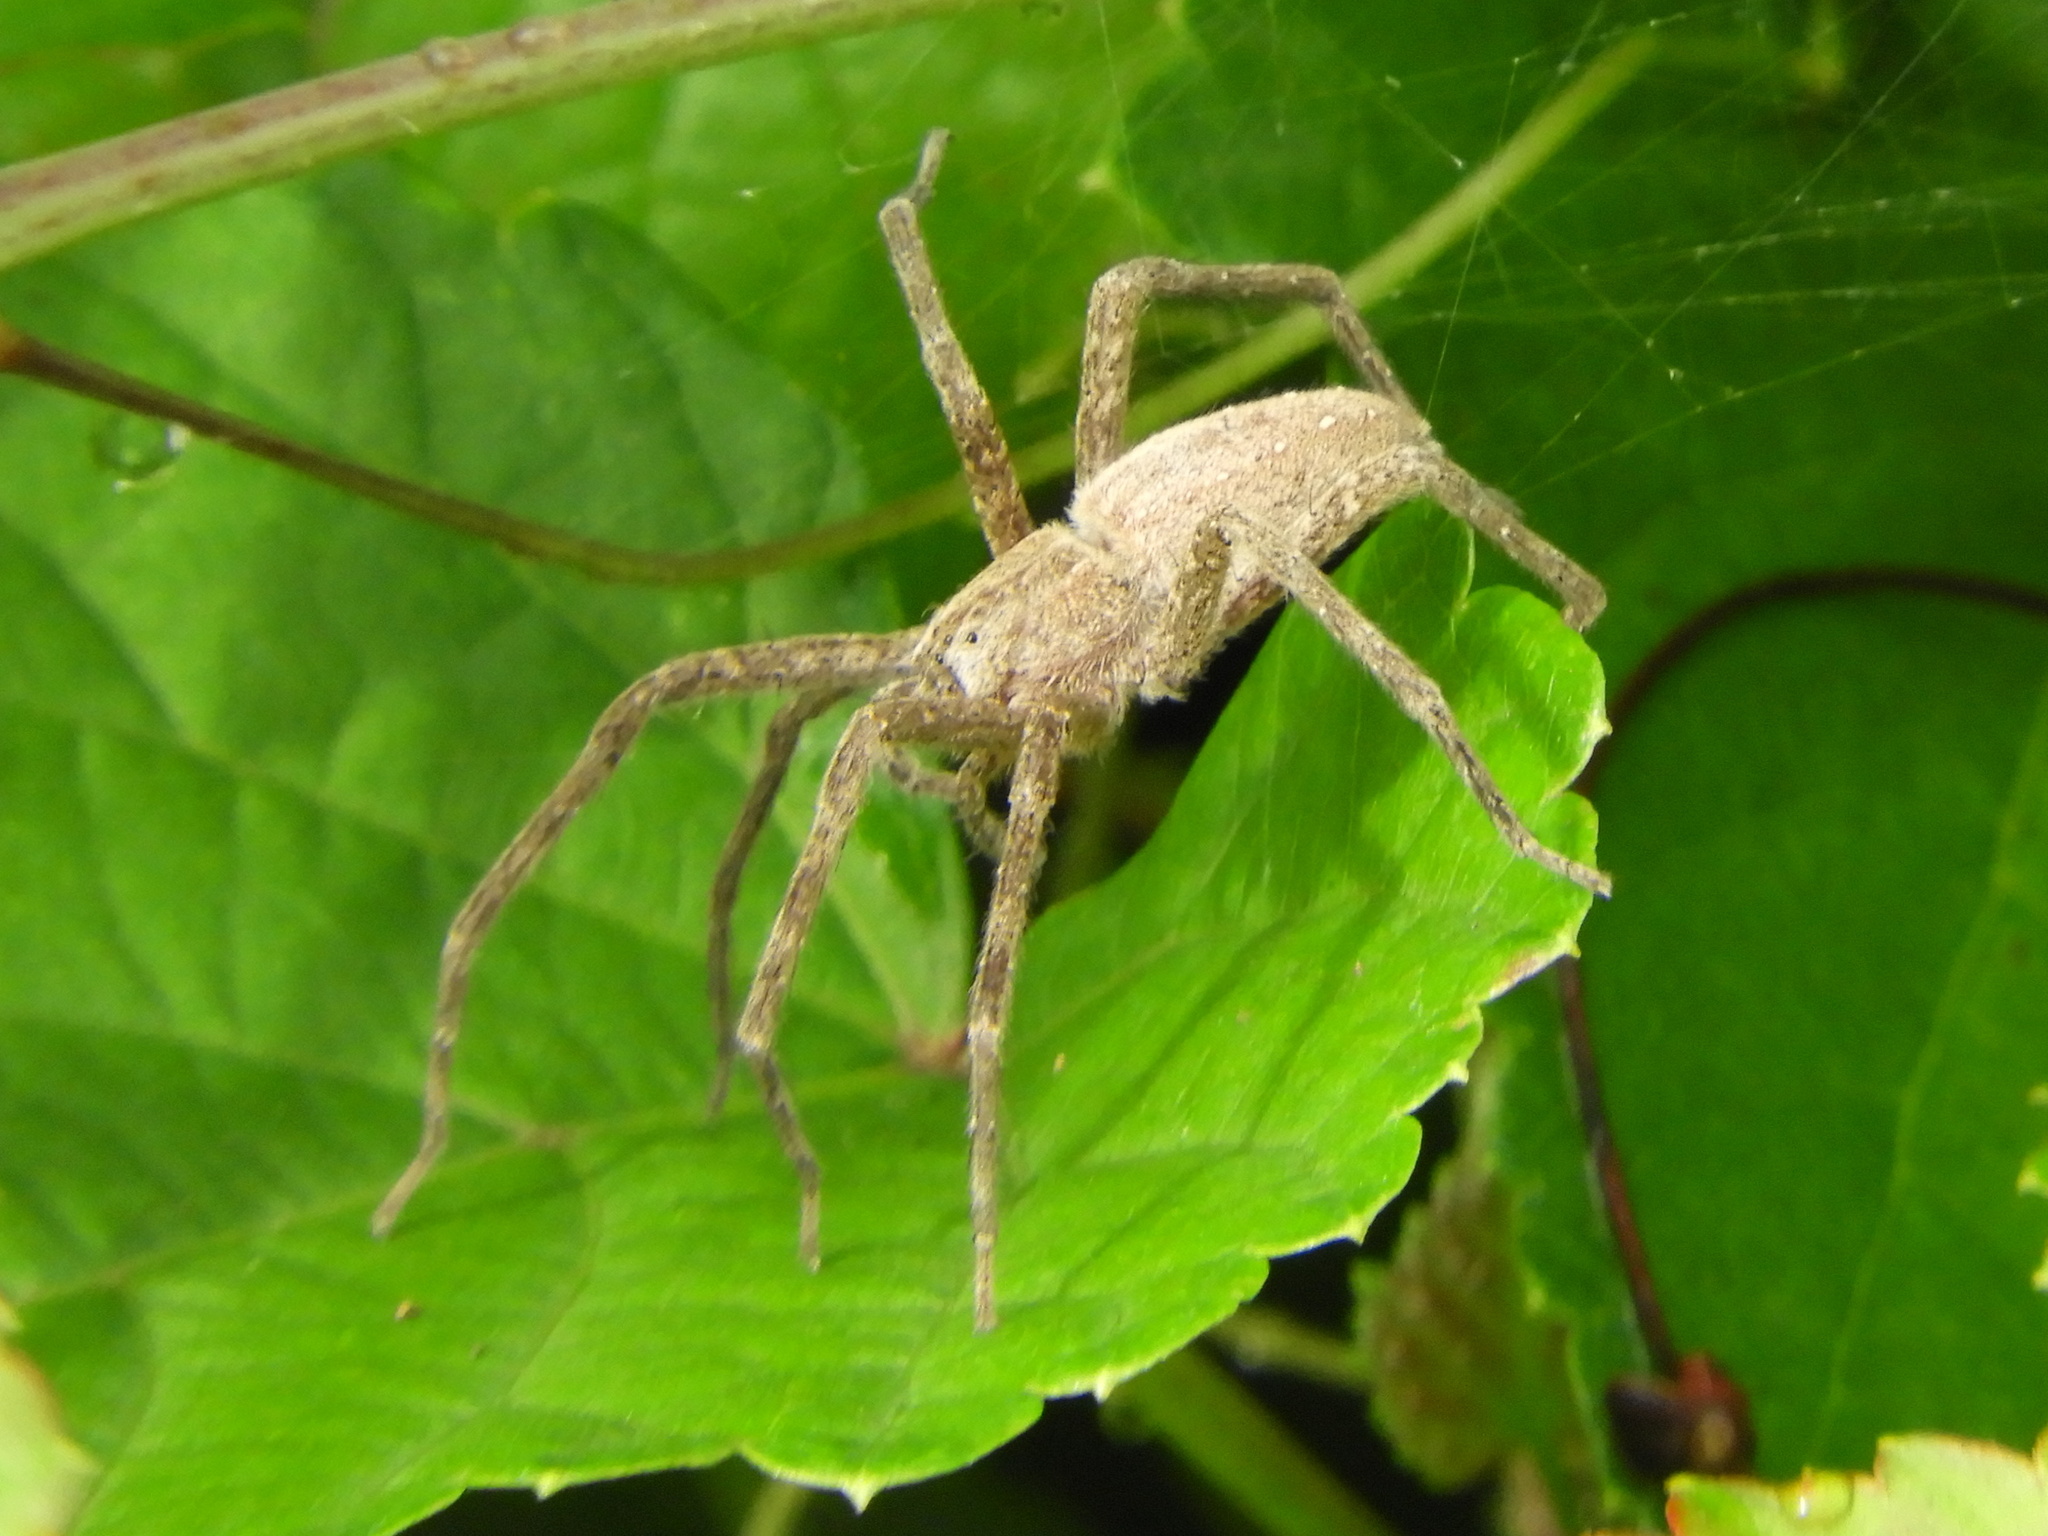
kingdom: Animalia
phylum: Arthropoda
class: Arachnida
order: Araneae
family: Pisauridae
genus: Pisaurina
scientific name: Pisaurina mira
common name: American nursery web spider
